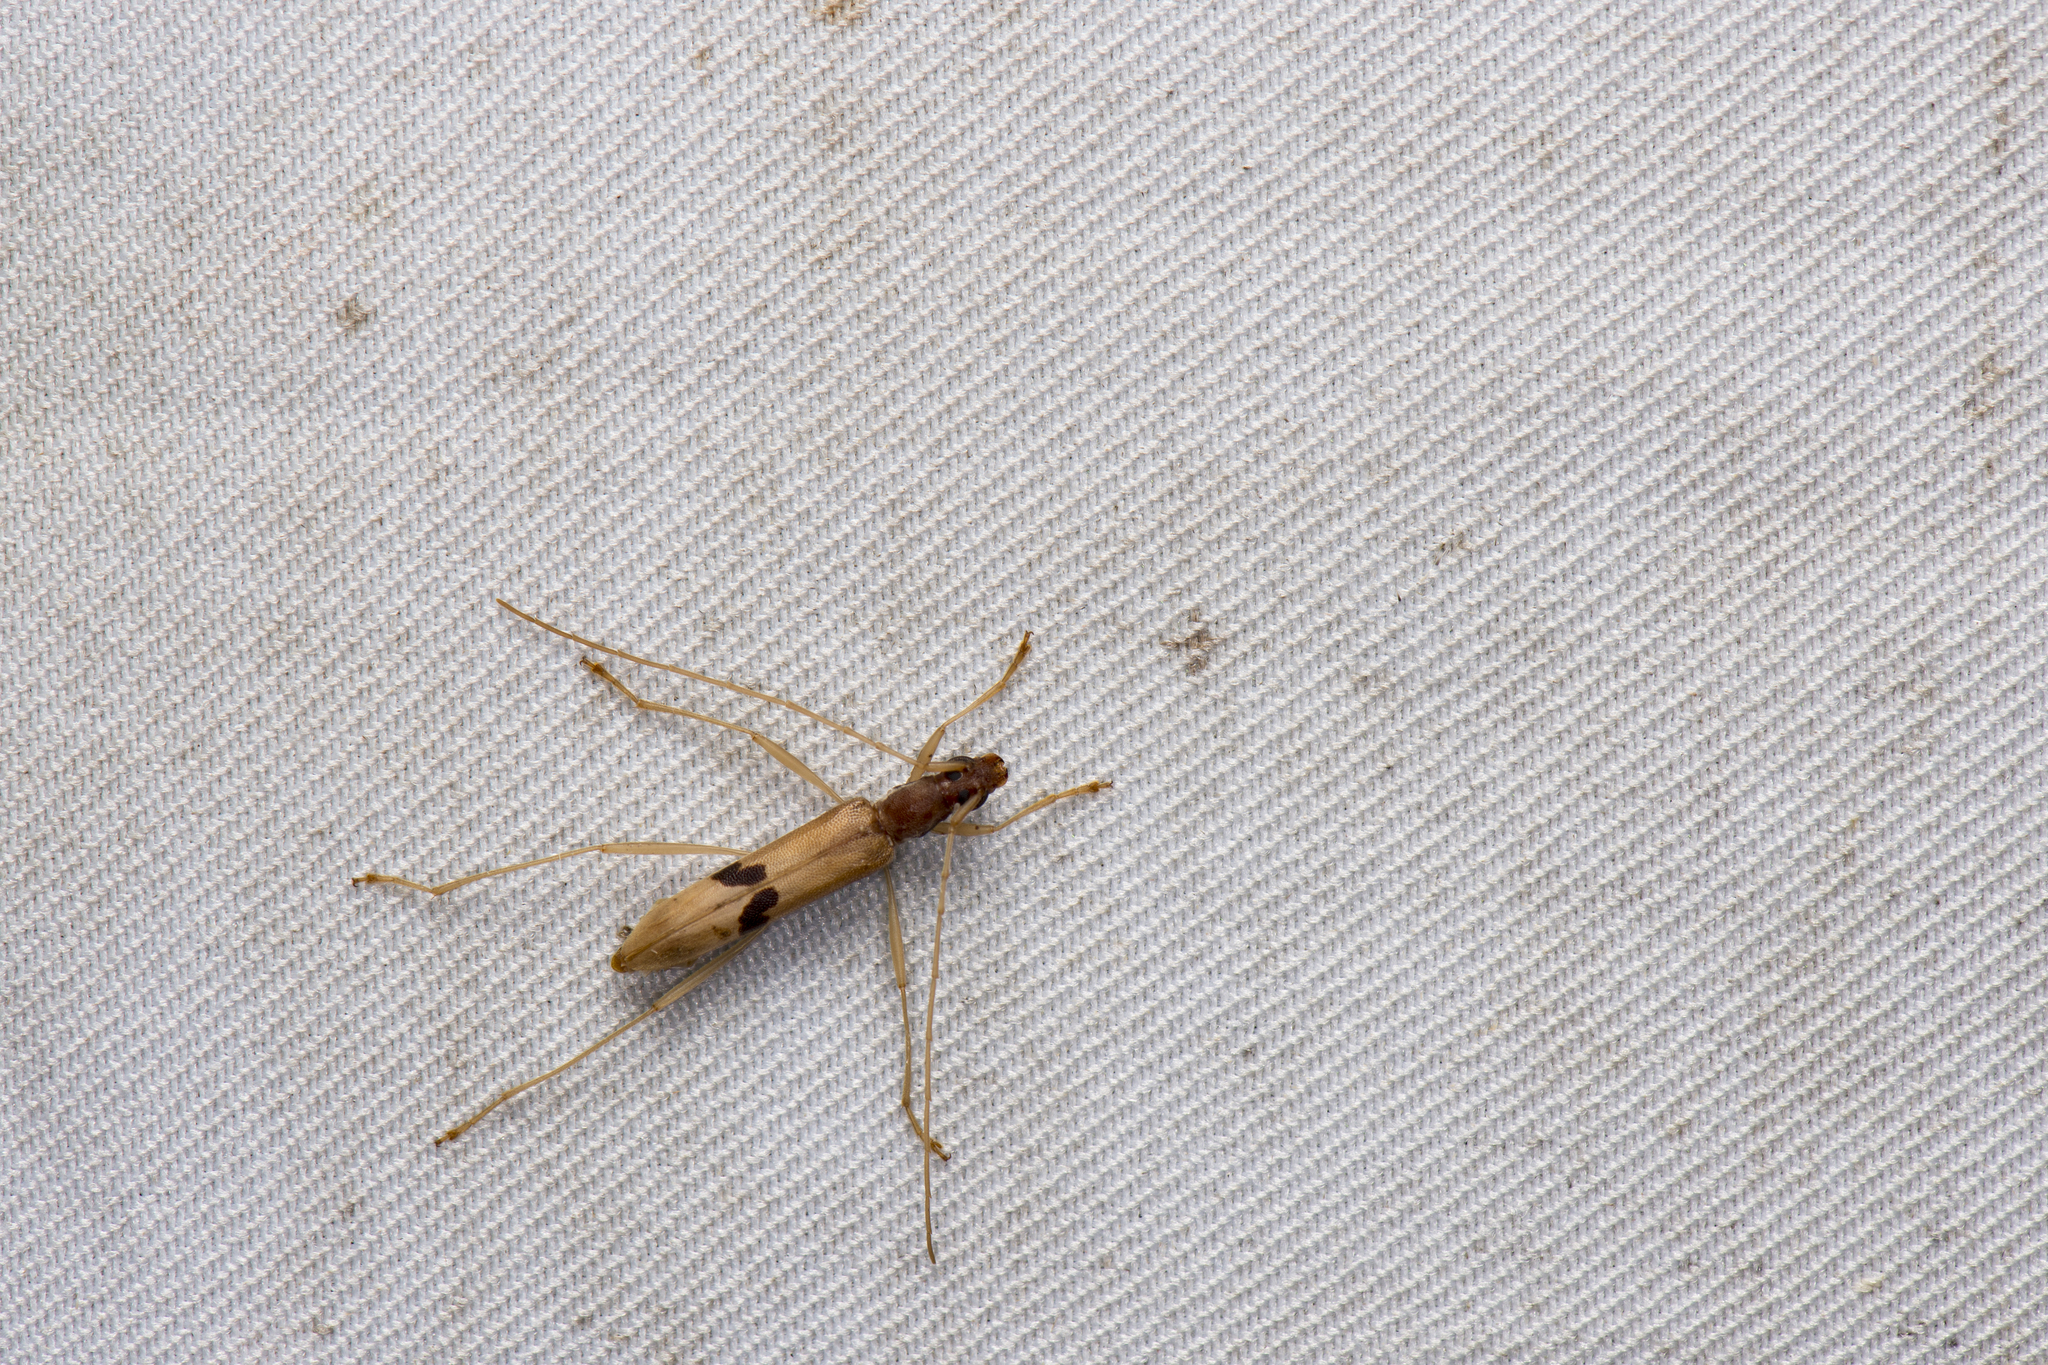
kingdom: Animalia
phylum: Arthropoda
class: Insecta
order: Coleoptera
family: Cerambycidae
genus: Leptoxenus
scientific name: Leptoxenus bimaculatus
